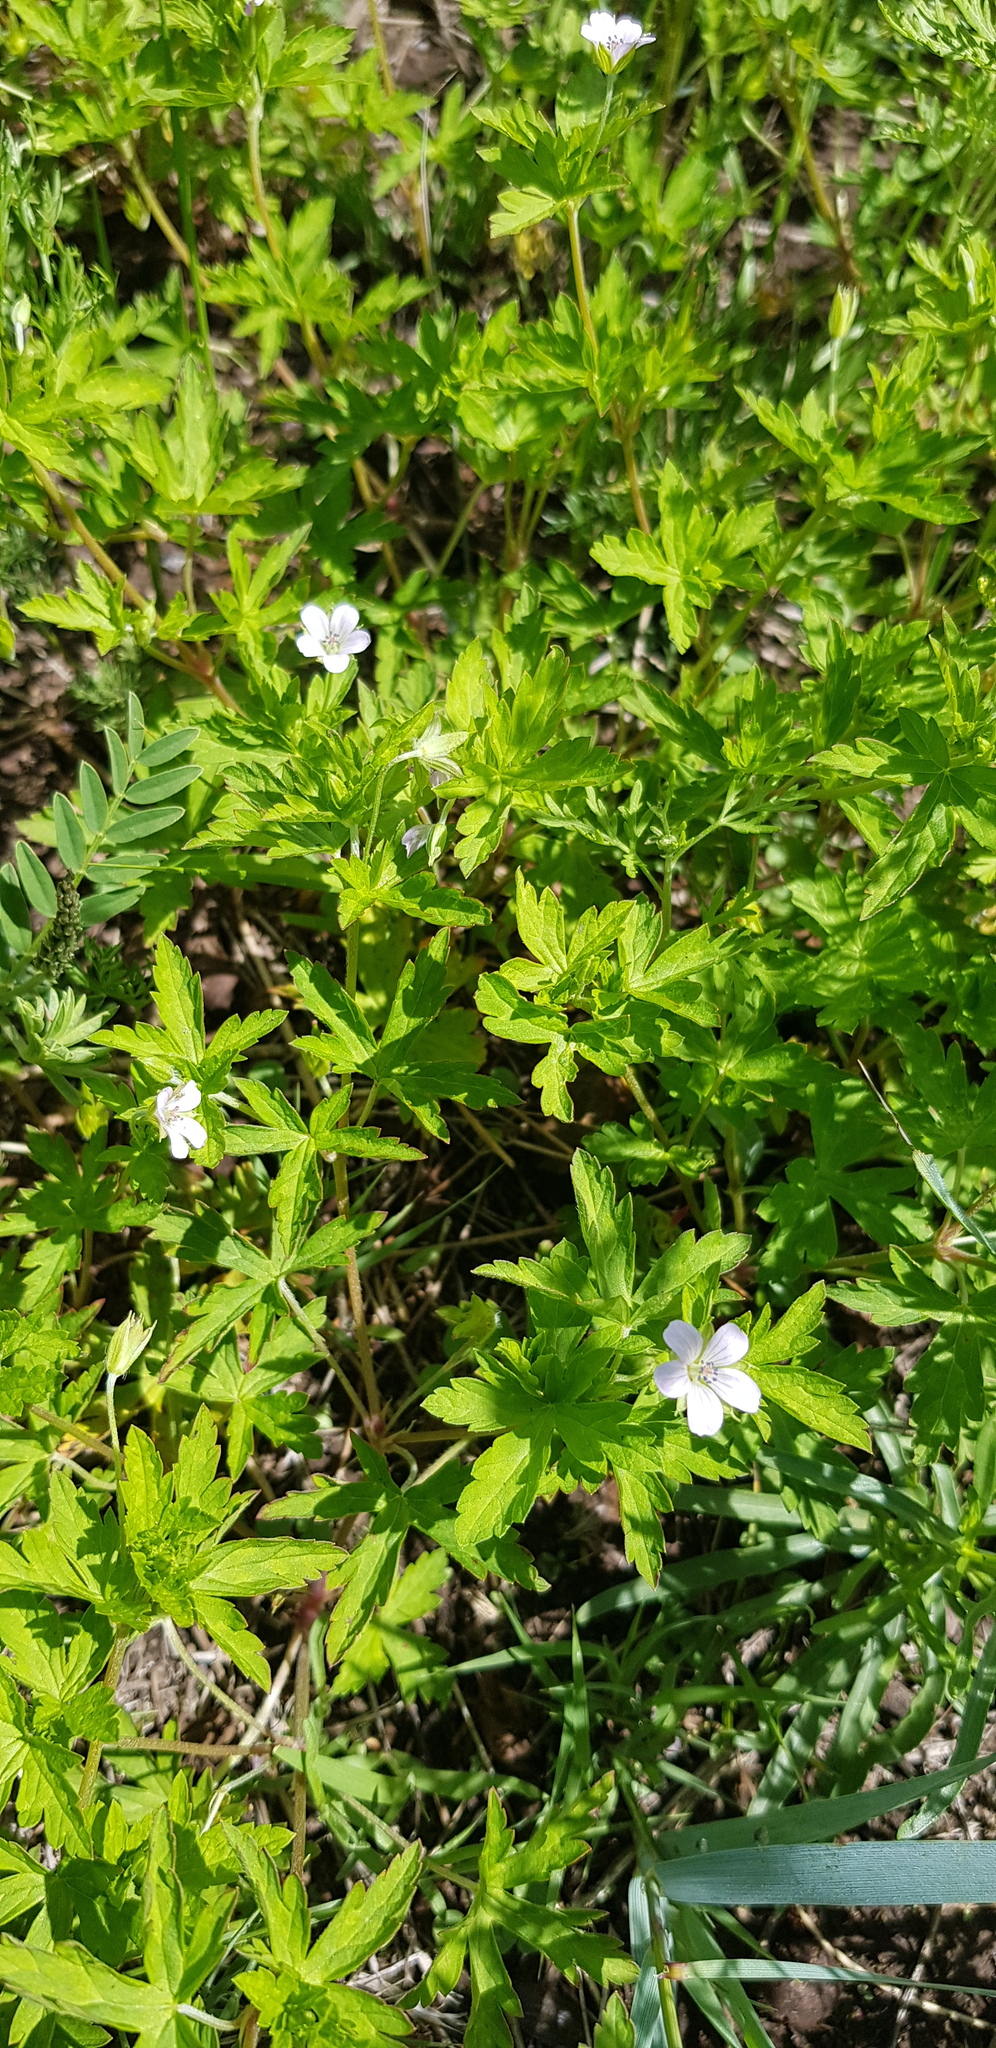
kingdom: Plantae
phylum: Tracheophyta
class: Magnoliopsida
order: Geraniales
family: Geraniaceae
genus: Geranium
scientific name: Geranium sibiricum
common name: Siberian crane's-bill
